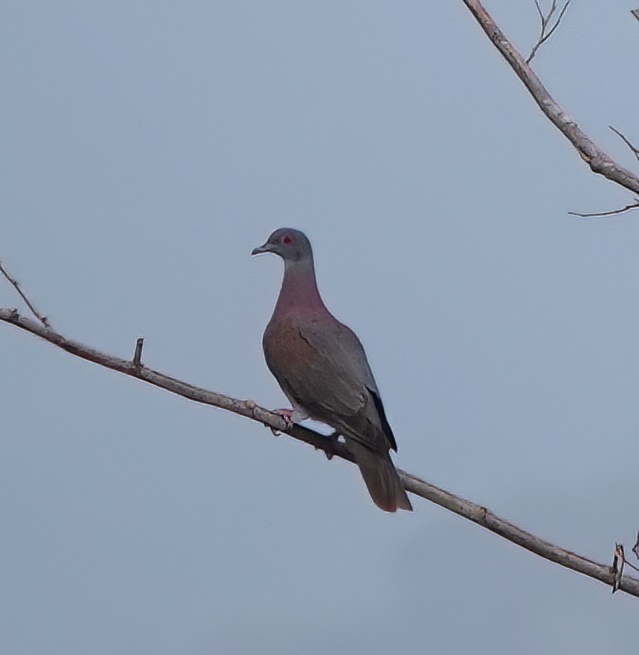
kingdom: Animalia
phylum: Chordata
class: Aves
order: Columbiformes
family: Columbidae
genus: Patagioenas
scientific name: Patagioenas cayennensis
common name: Pale-vented pigeon
